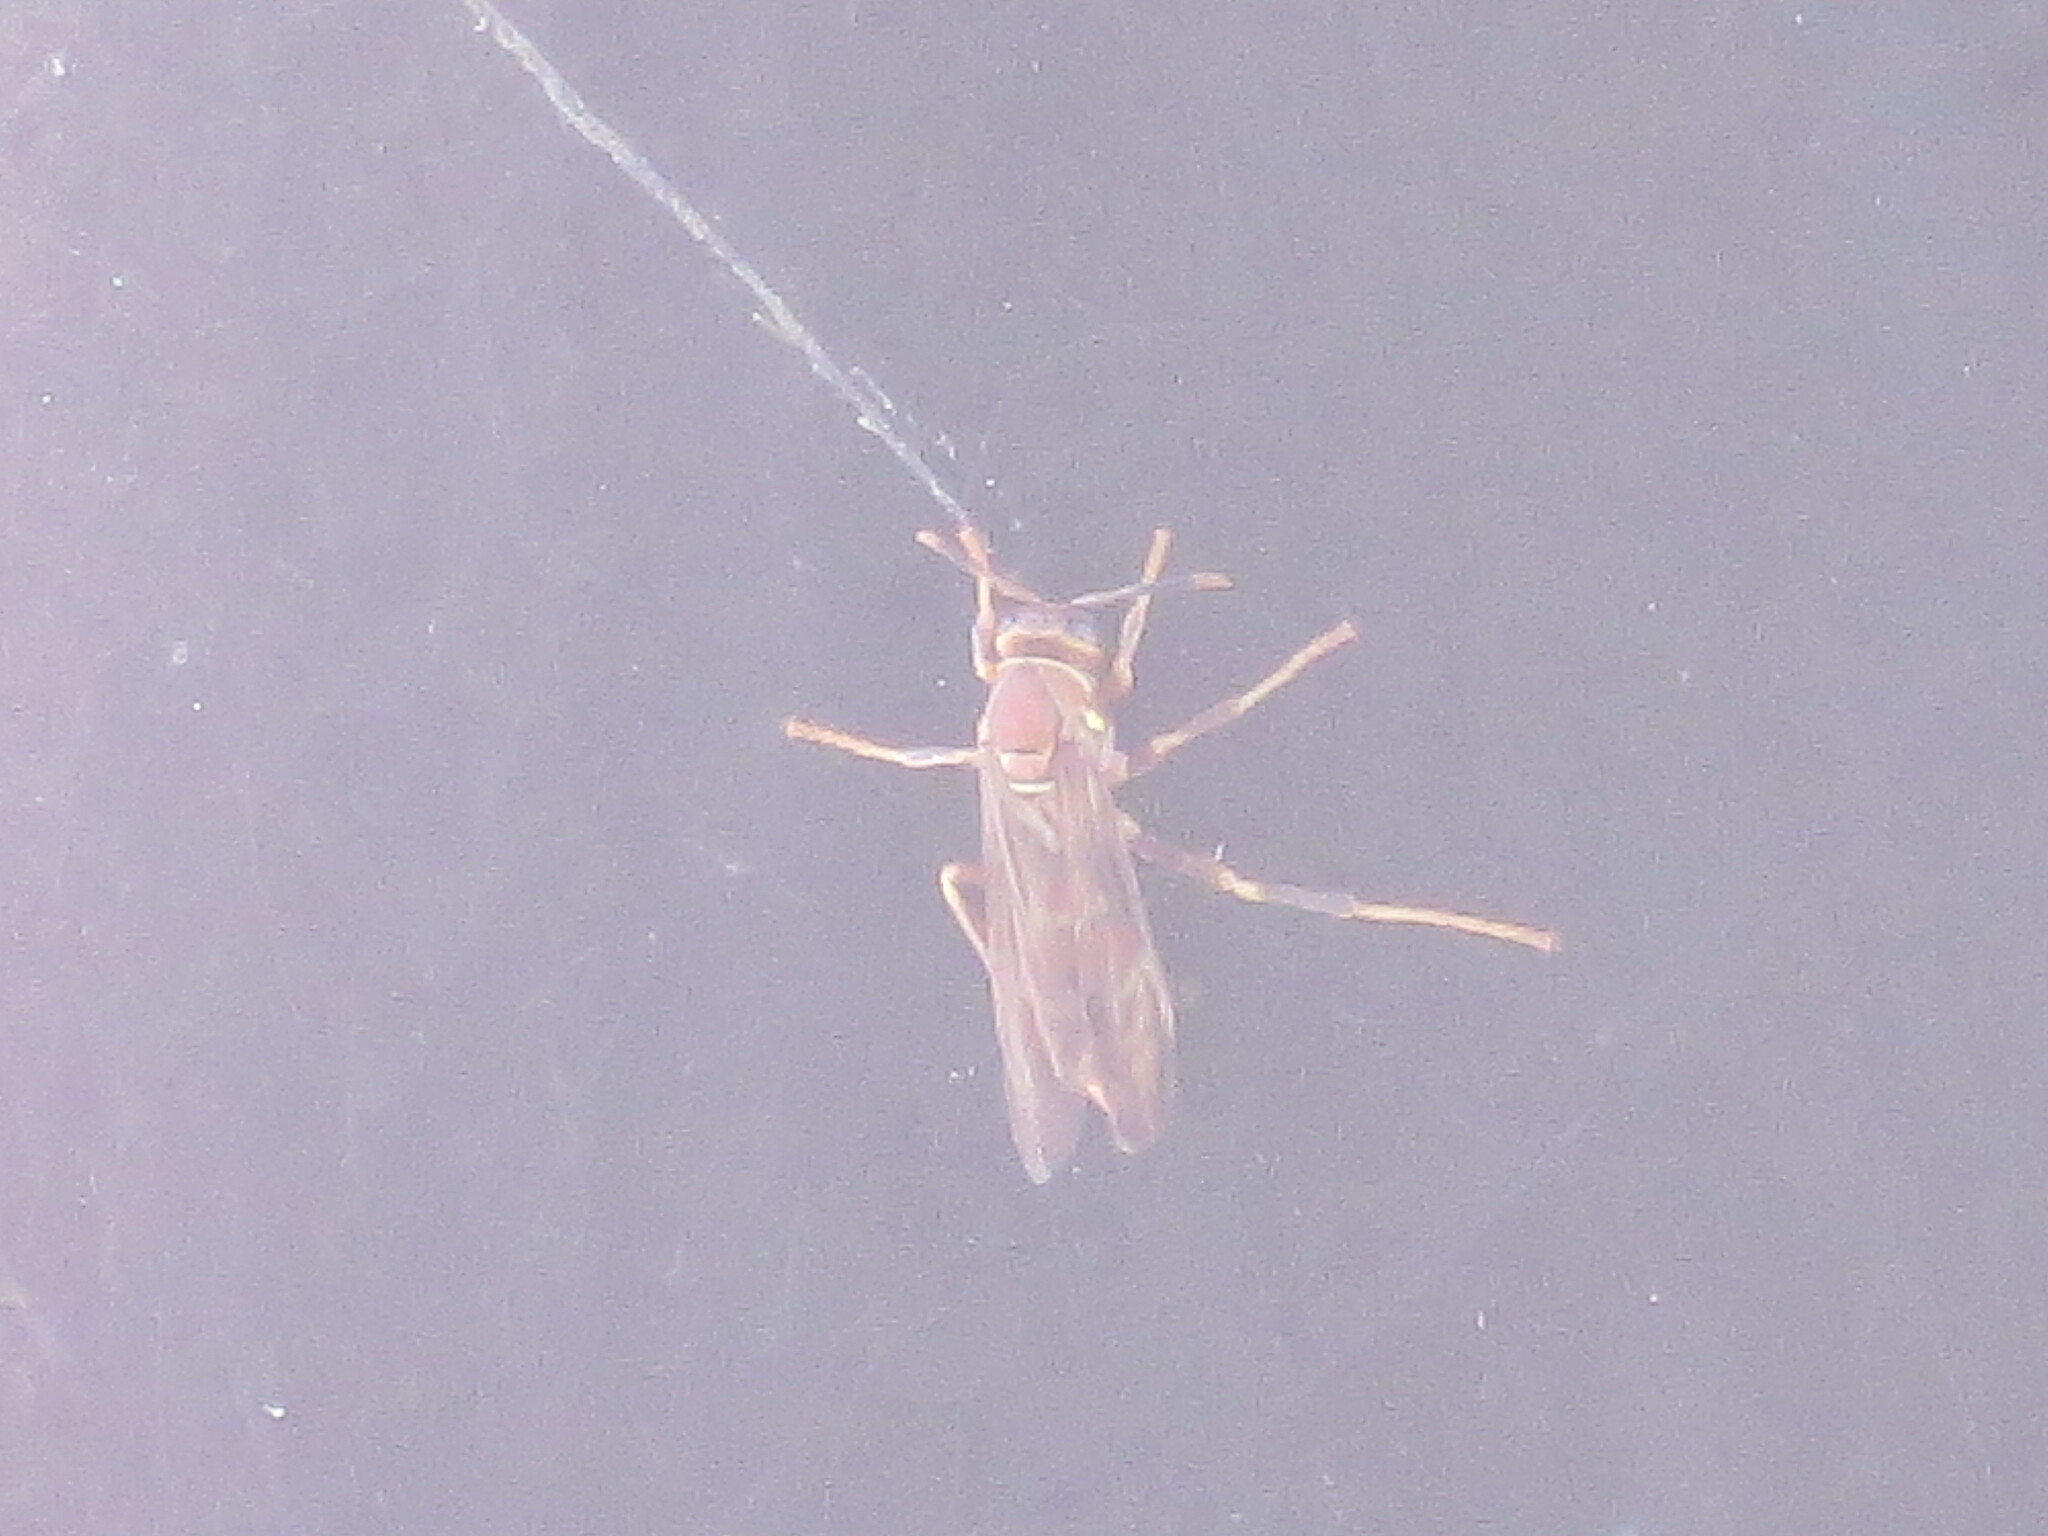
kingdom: Animalia
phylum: Arthropoda
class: Insecta
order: Hymenoptera
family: Eumenidae
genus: Polistes
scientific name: Polistes exclamans
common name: Paper wasp
